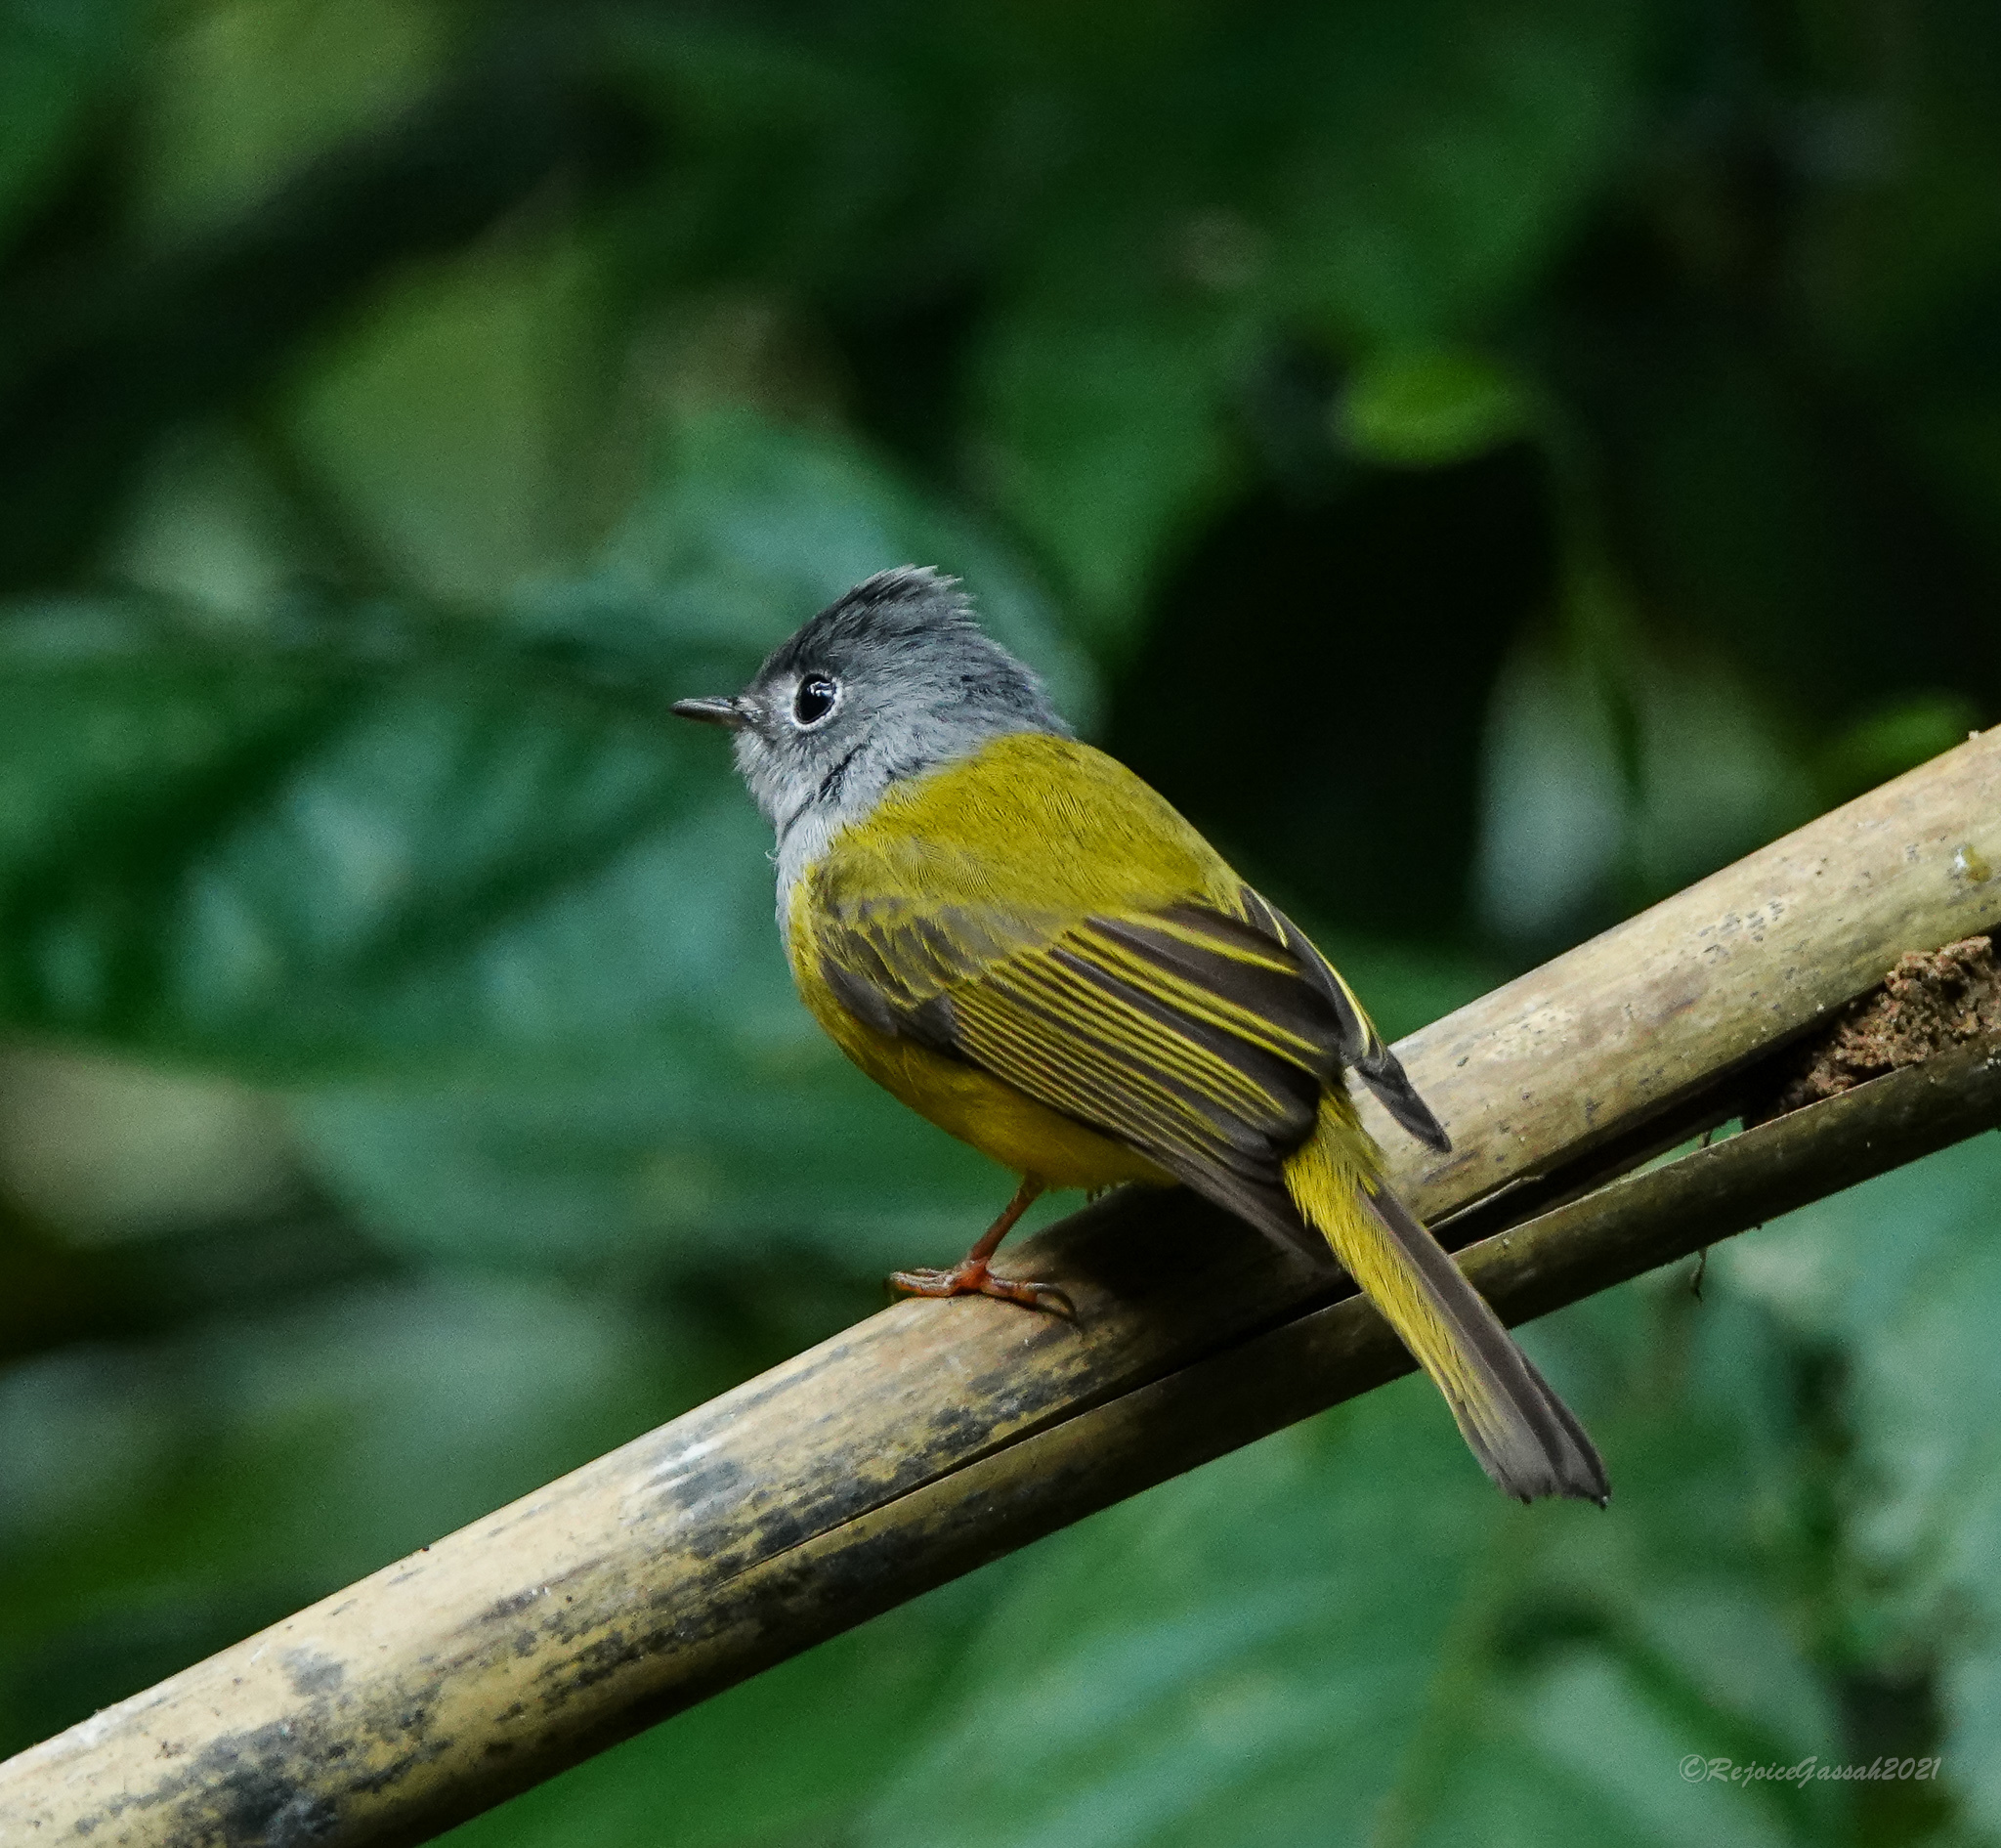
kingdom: Animalia
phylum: Chordata
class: Aves
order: Passeriformes
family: Stenostiridae
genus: Culicicapa
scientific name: Culicicapa ceylonensis
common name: Grey-headed canary-flycatcher
